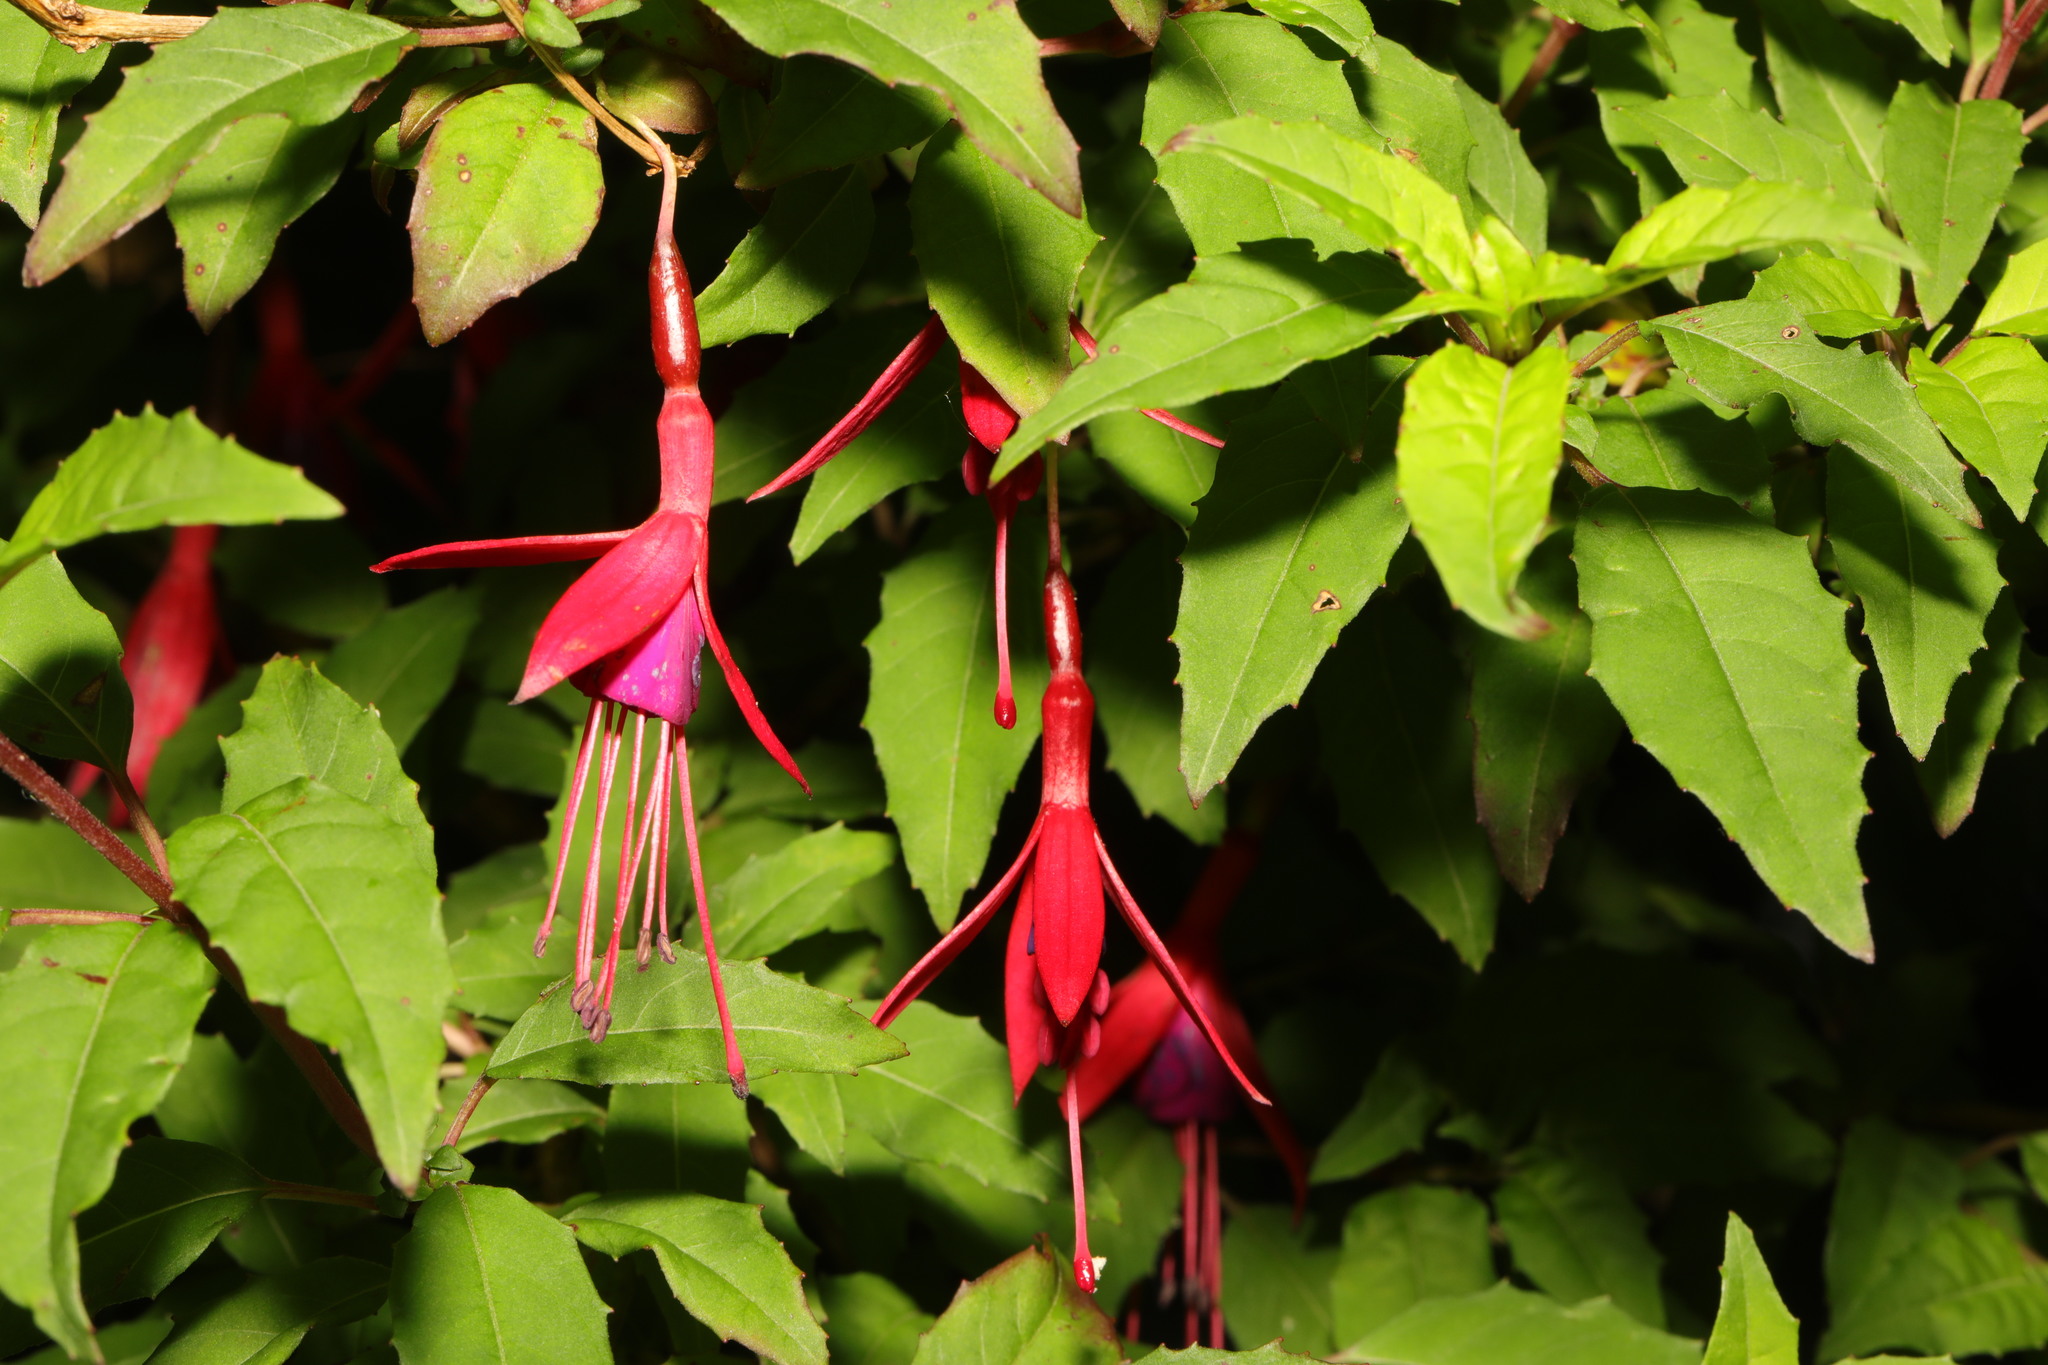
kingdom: Plantae
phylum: Tracheophyta
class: Magnoliopsida
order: Myrtales
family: Onagraceae
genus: Fuchsia
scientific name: Fuchsia magellanica
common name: Hardy fuchsia
